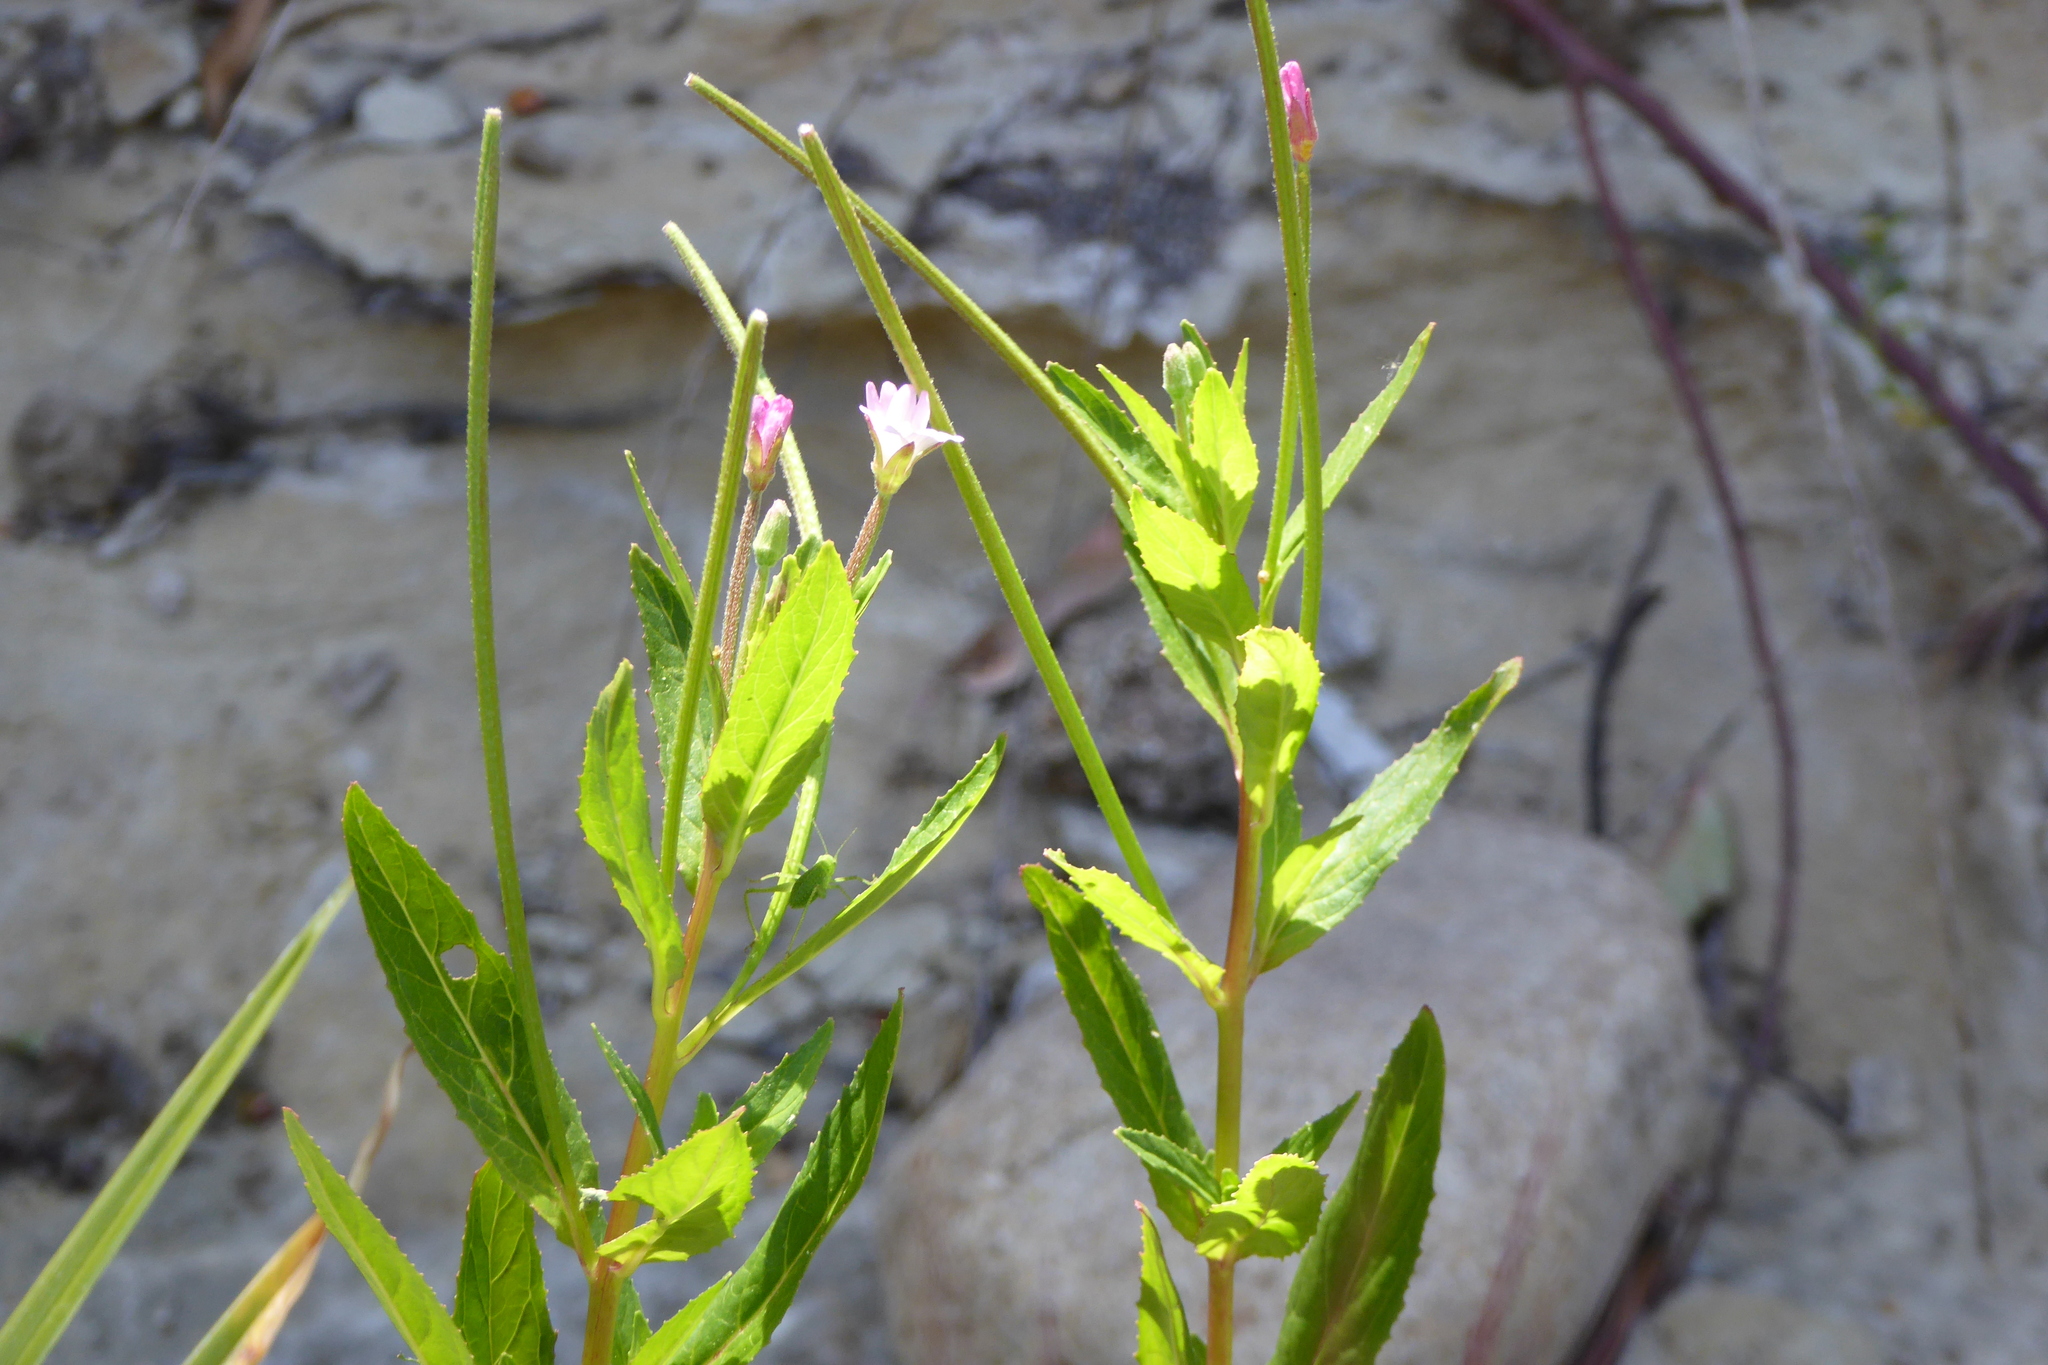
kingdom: Plantae
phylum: Tracheophyta
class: Magnoliopsida
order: Myrtales
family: Onagraceae
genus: Epilobium
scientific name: Epilobium ciliatum
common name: American willowherb
